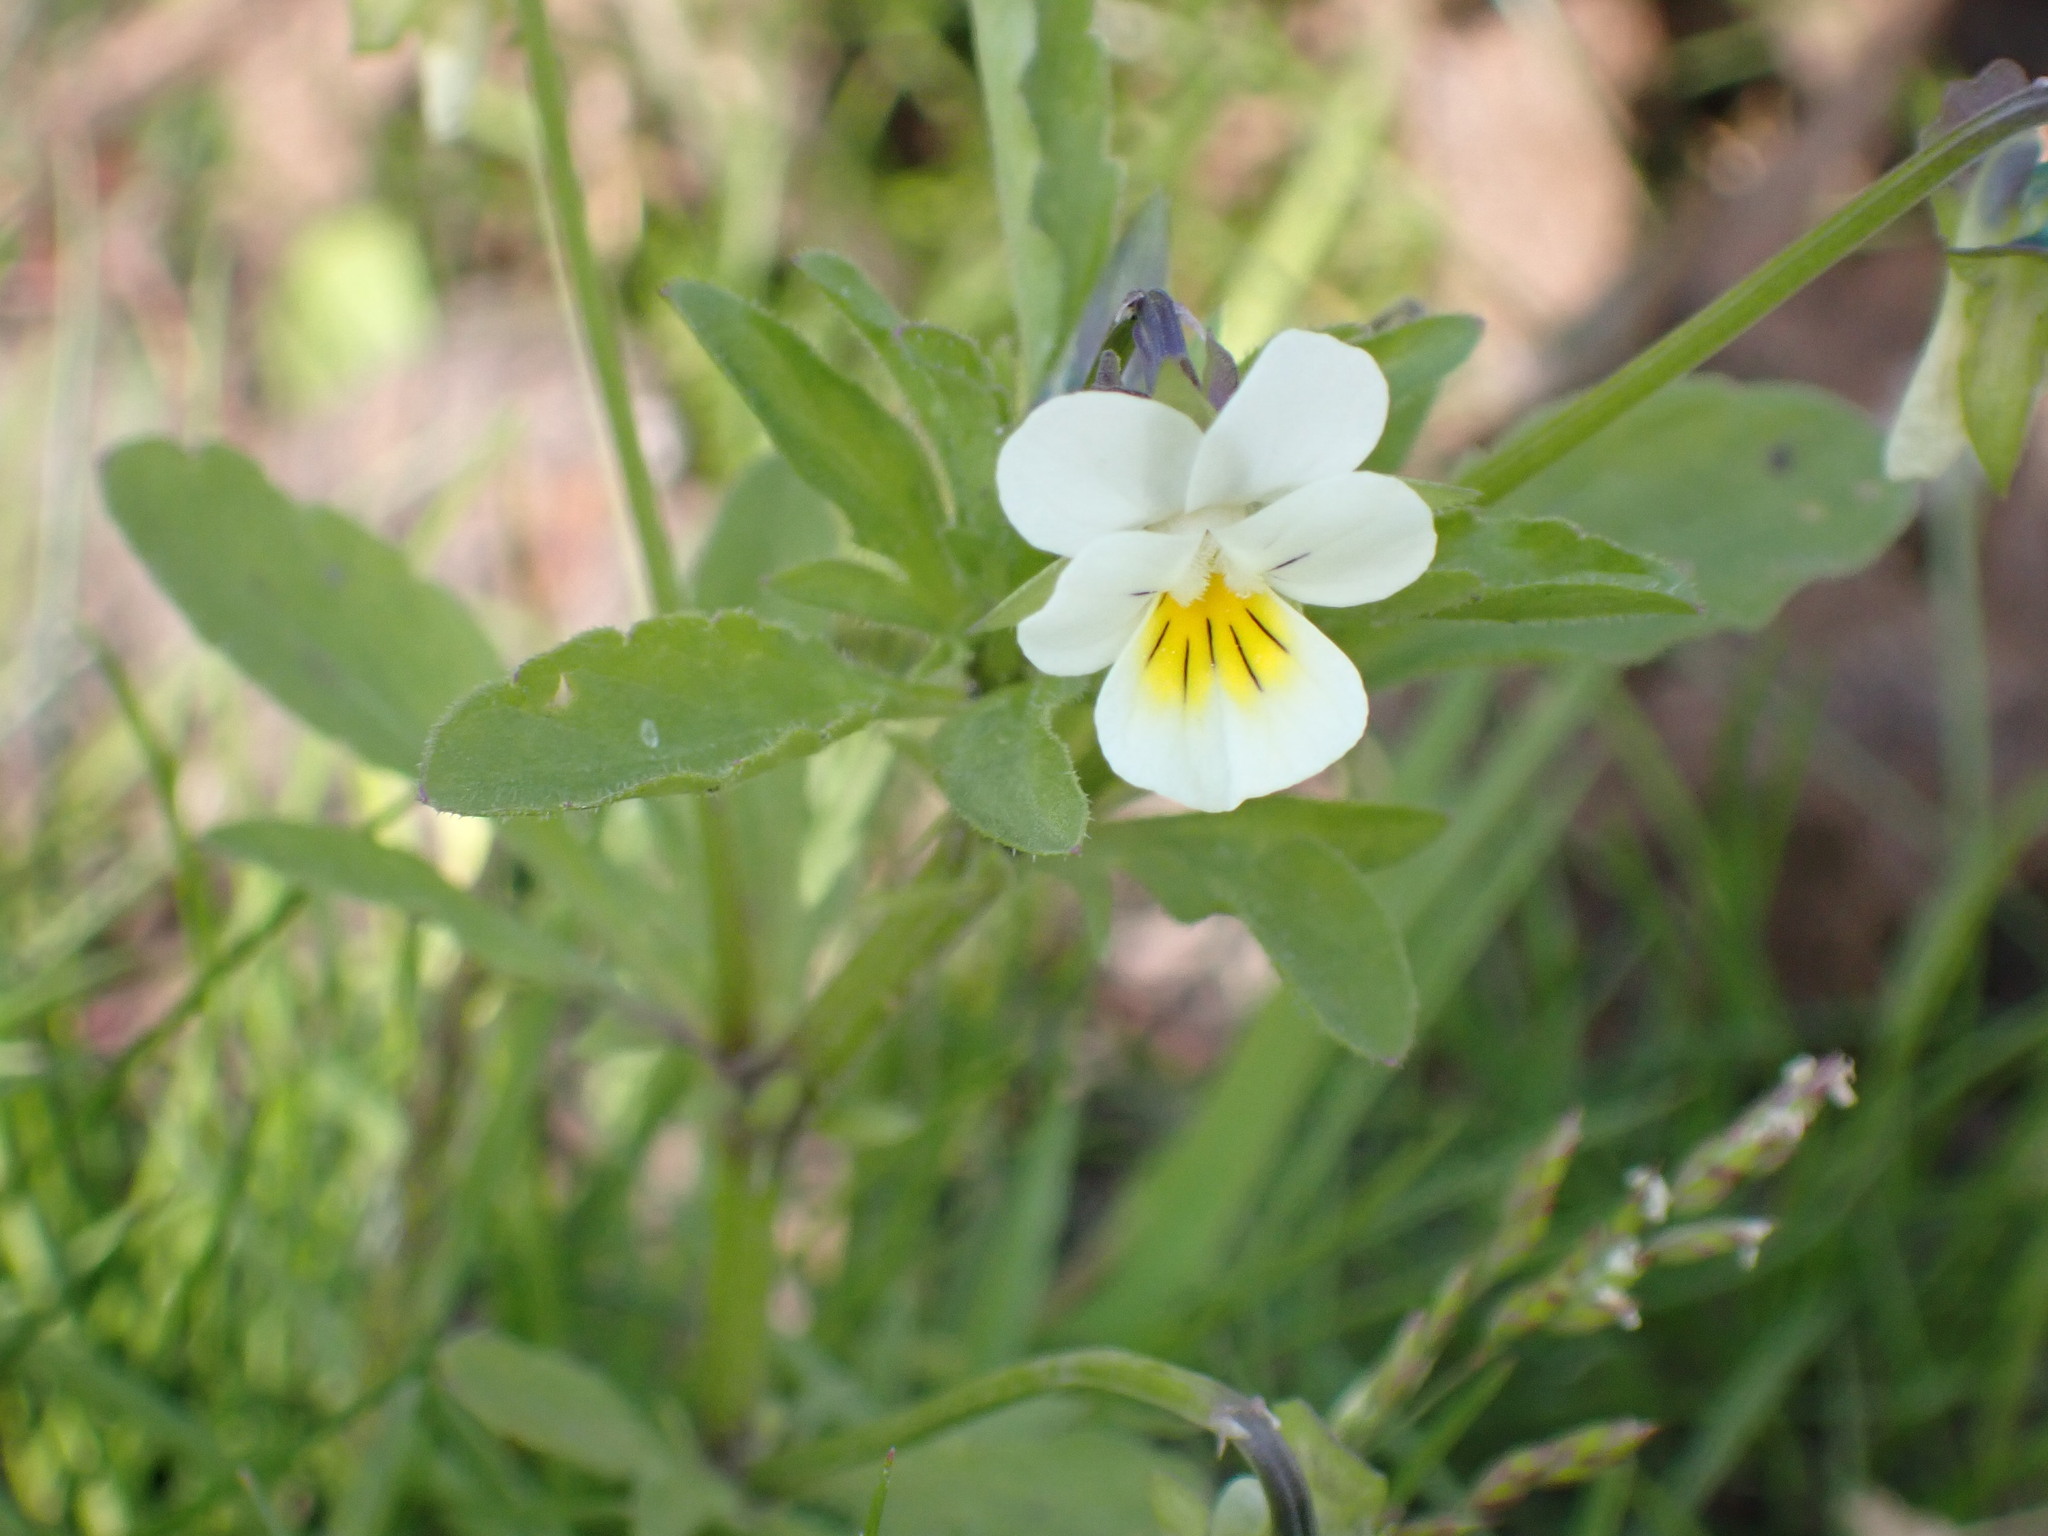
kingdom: Plantae
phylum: Tracheophyta
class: Magnoliopsida
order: Malpighiales
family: Violaceae
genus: Viola
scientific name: Viola arvensis
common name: Field pansy
